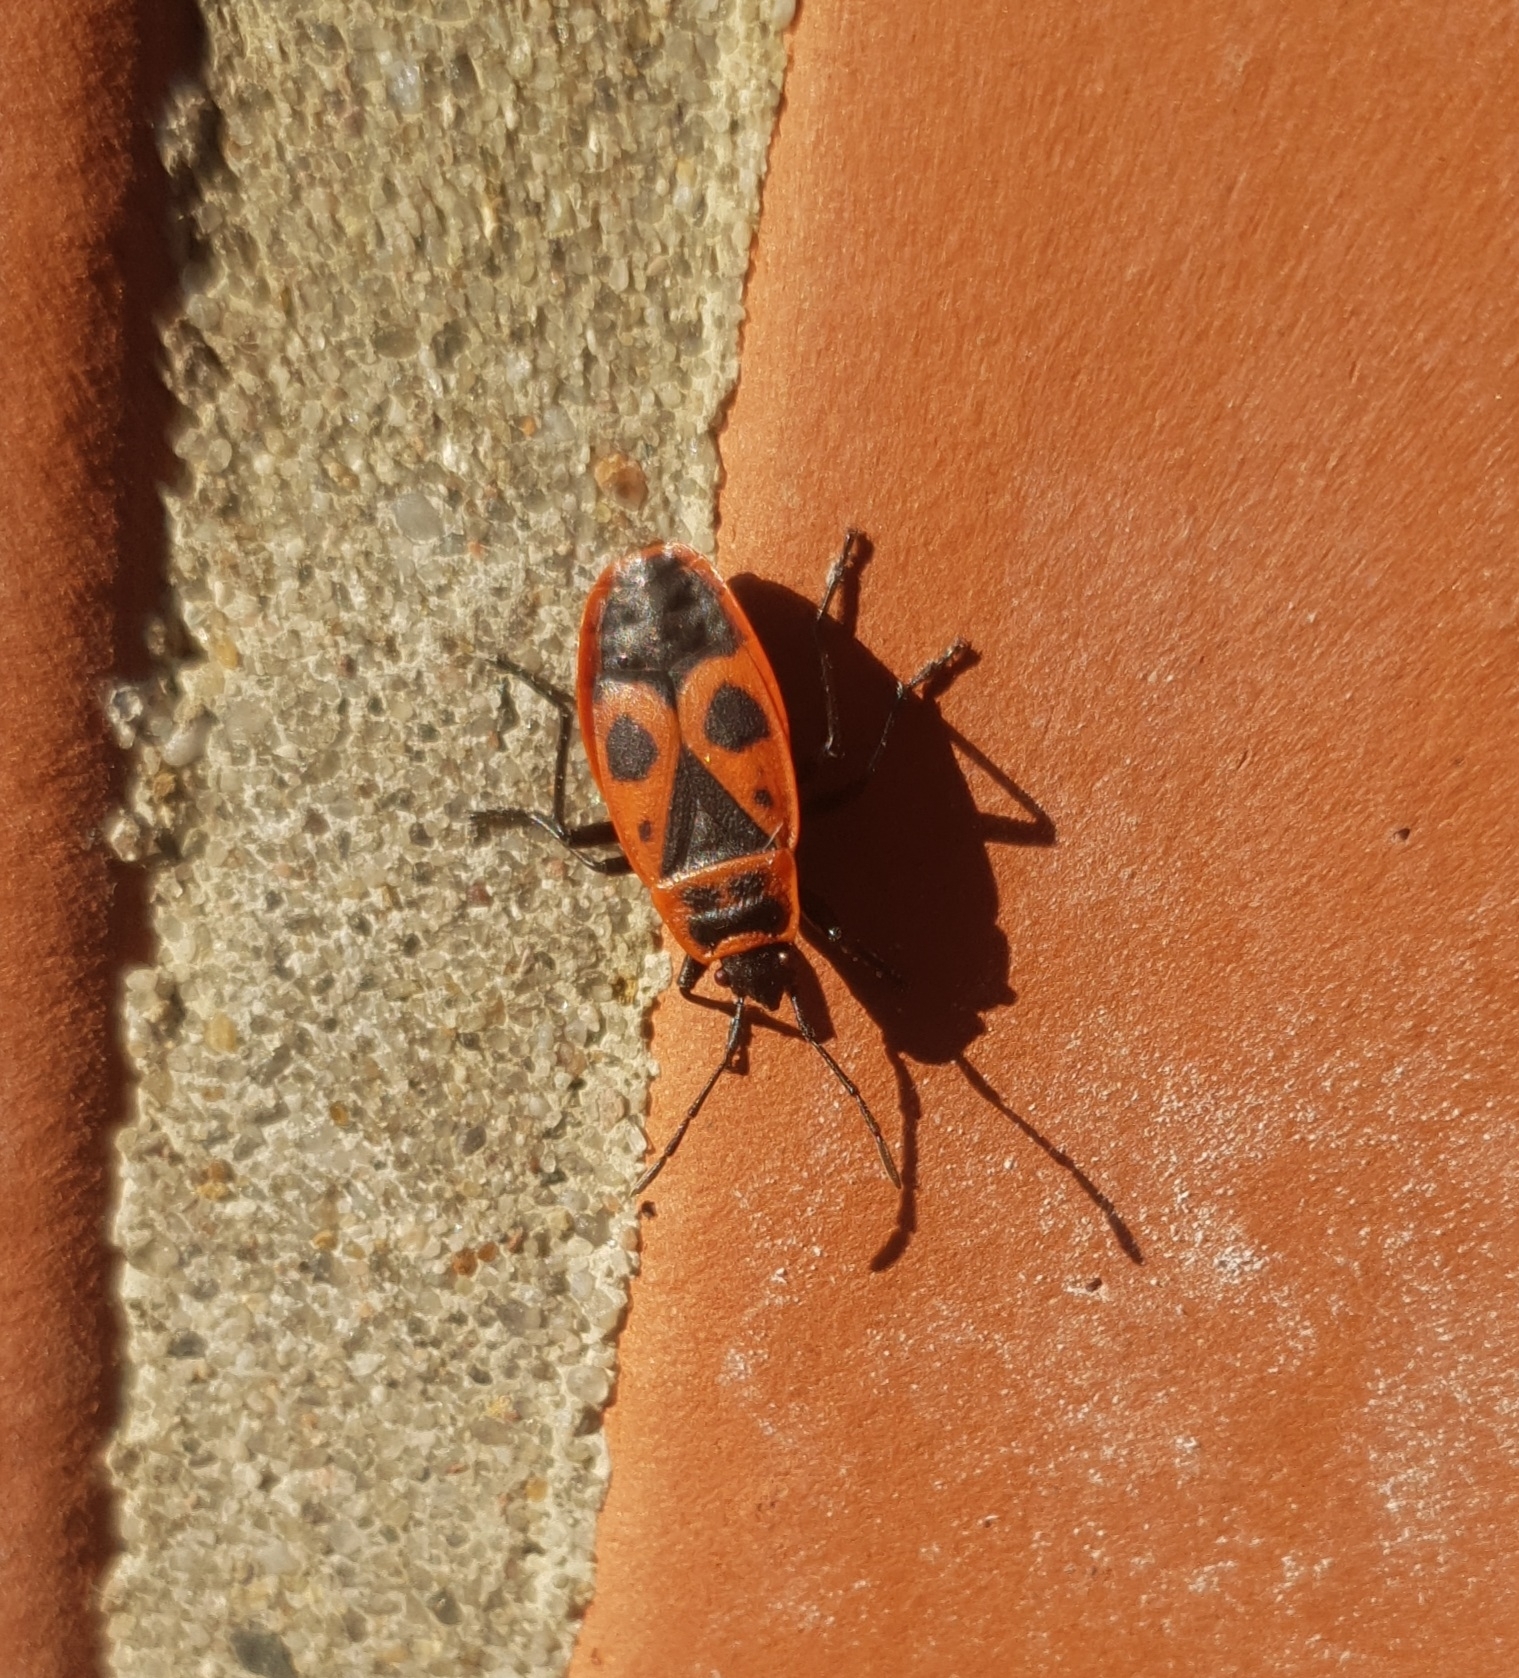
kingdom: Animalia
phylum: Arthropoda
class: Insecta
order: Hemiptera
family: Pyrrhocoridae
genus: Pyrrhocoris
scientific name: Pyrrhocoris apterus
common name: Firebug
